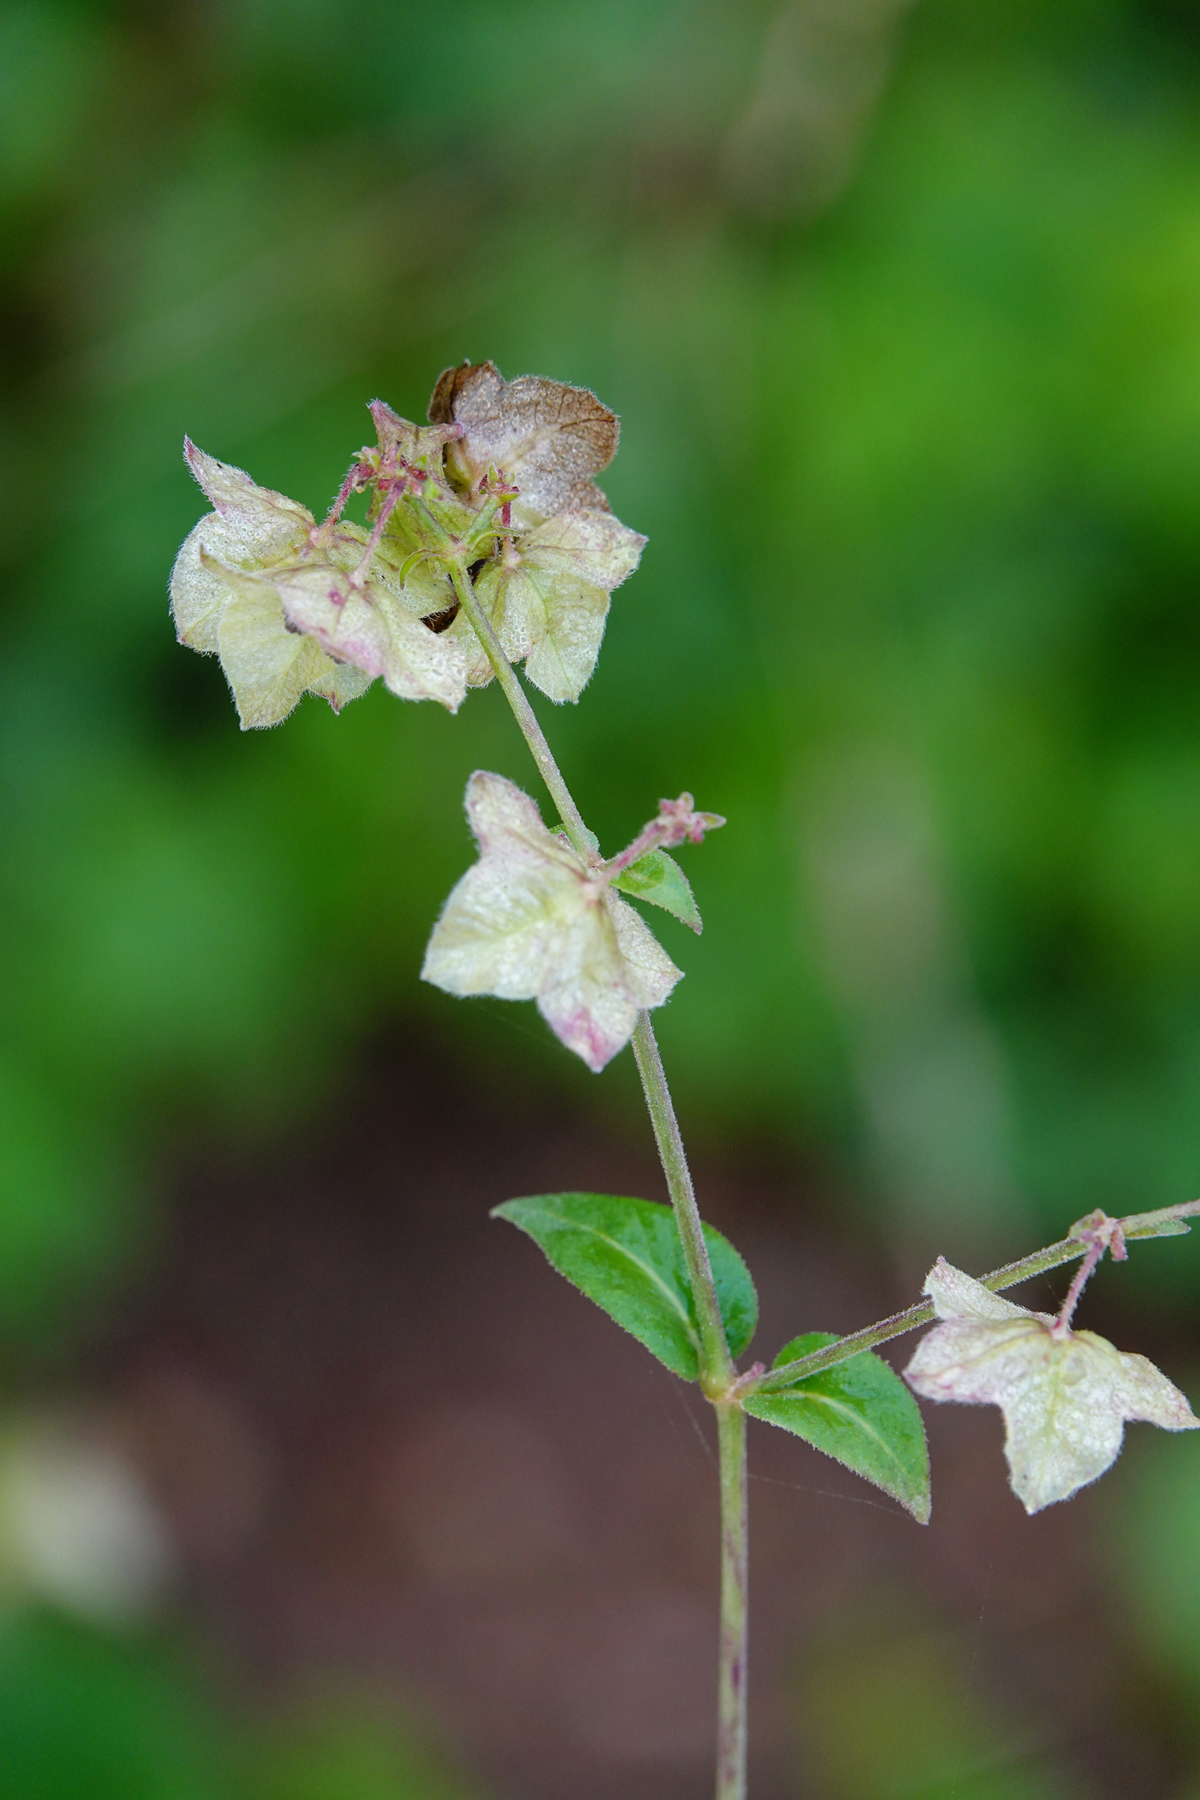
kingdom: Plantae
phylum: Tracheophyta
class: Magnoliopsida
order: Caryophyllales
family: Nyctaginaceae
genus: Mirabilis
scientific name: Mirabilis albida
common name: Hairy four-o'clock
